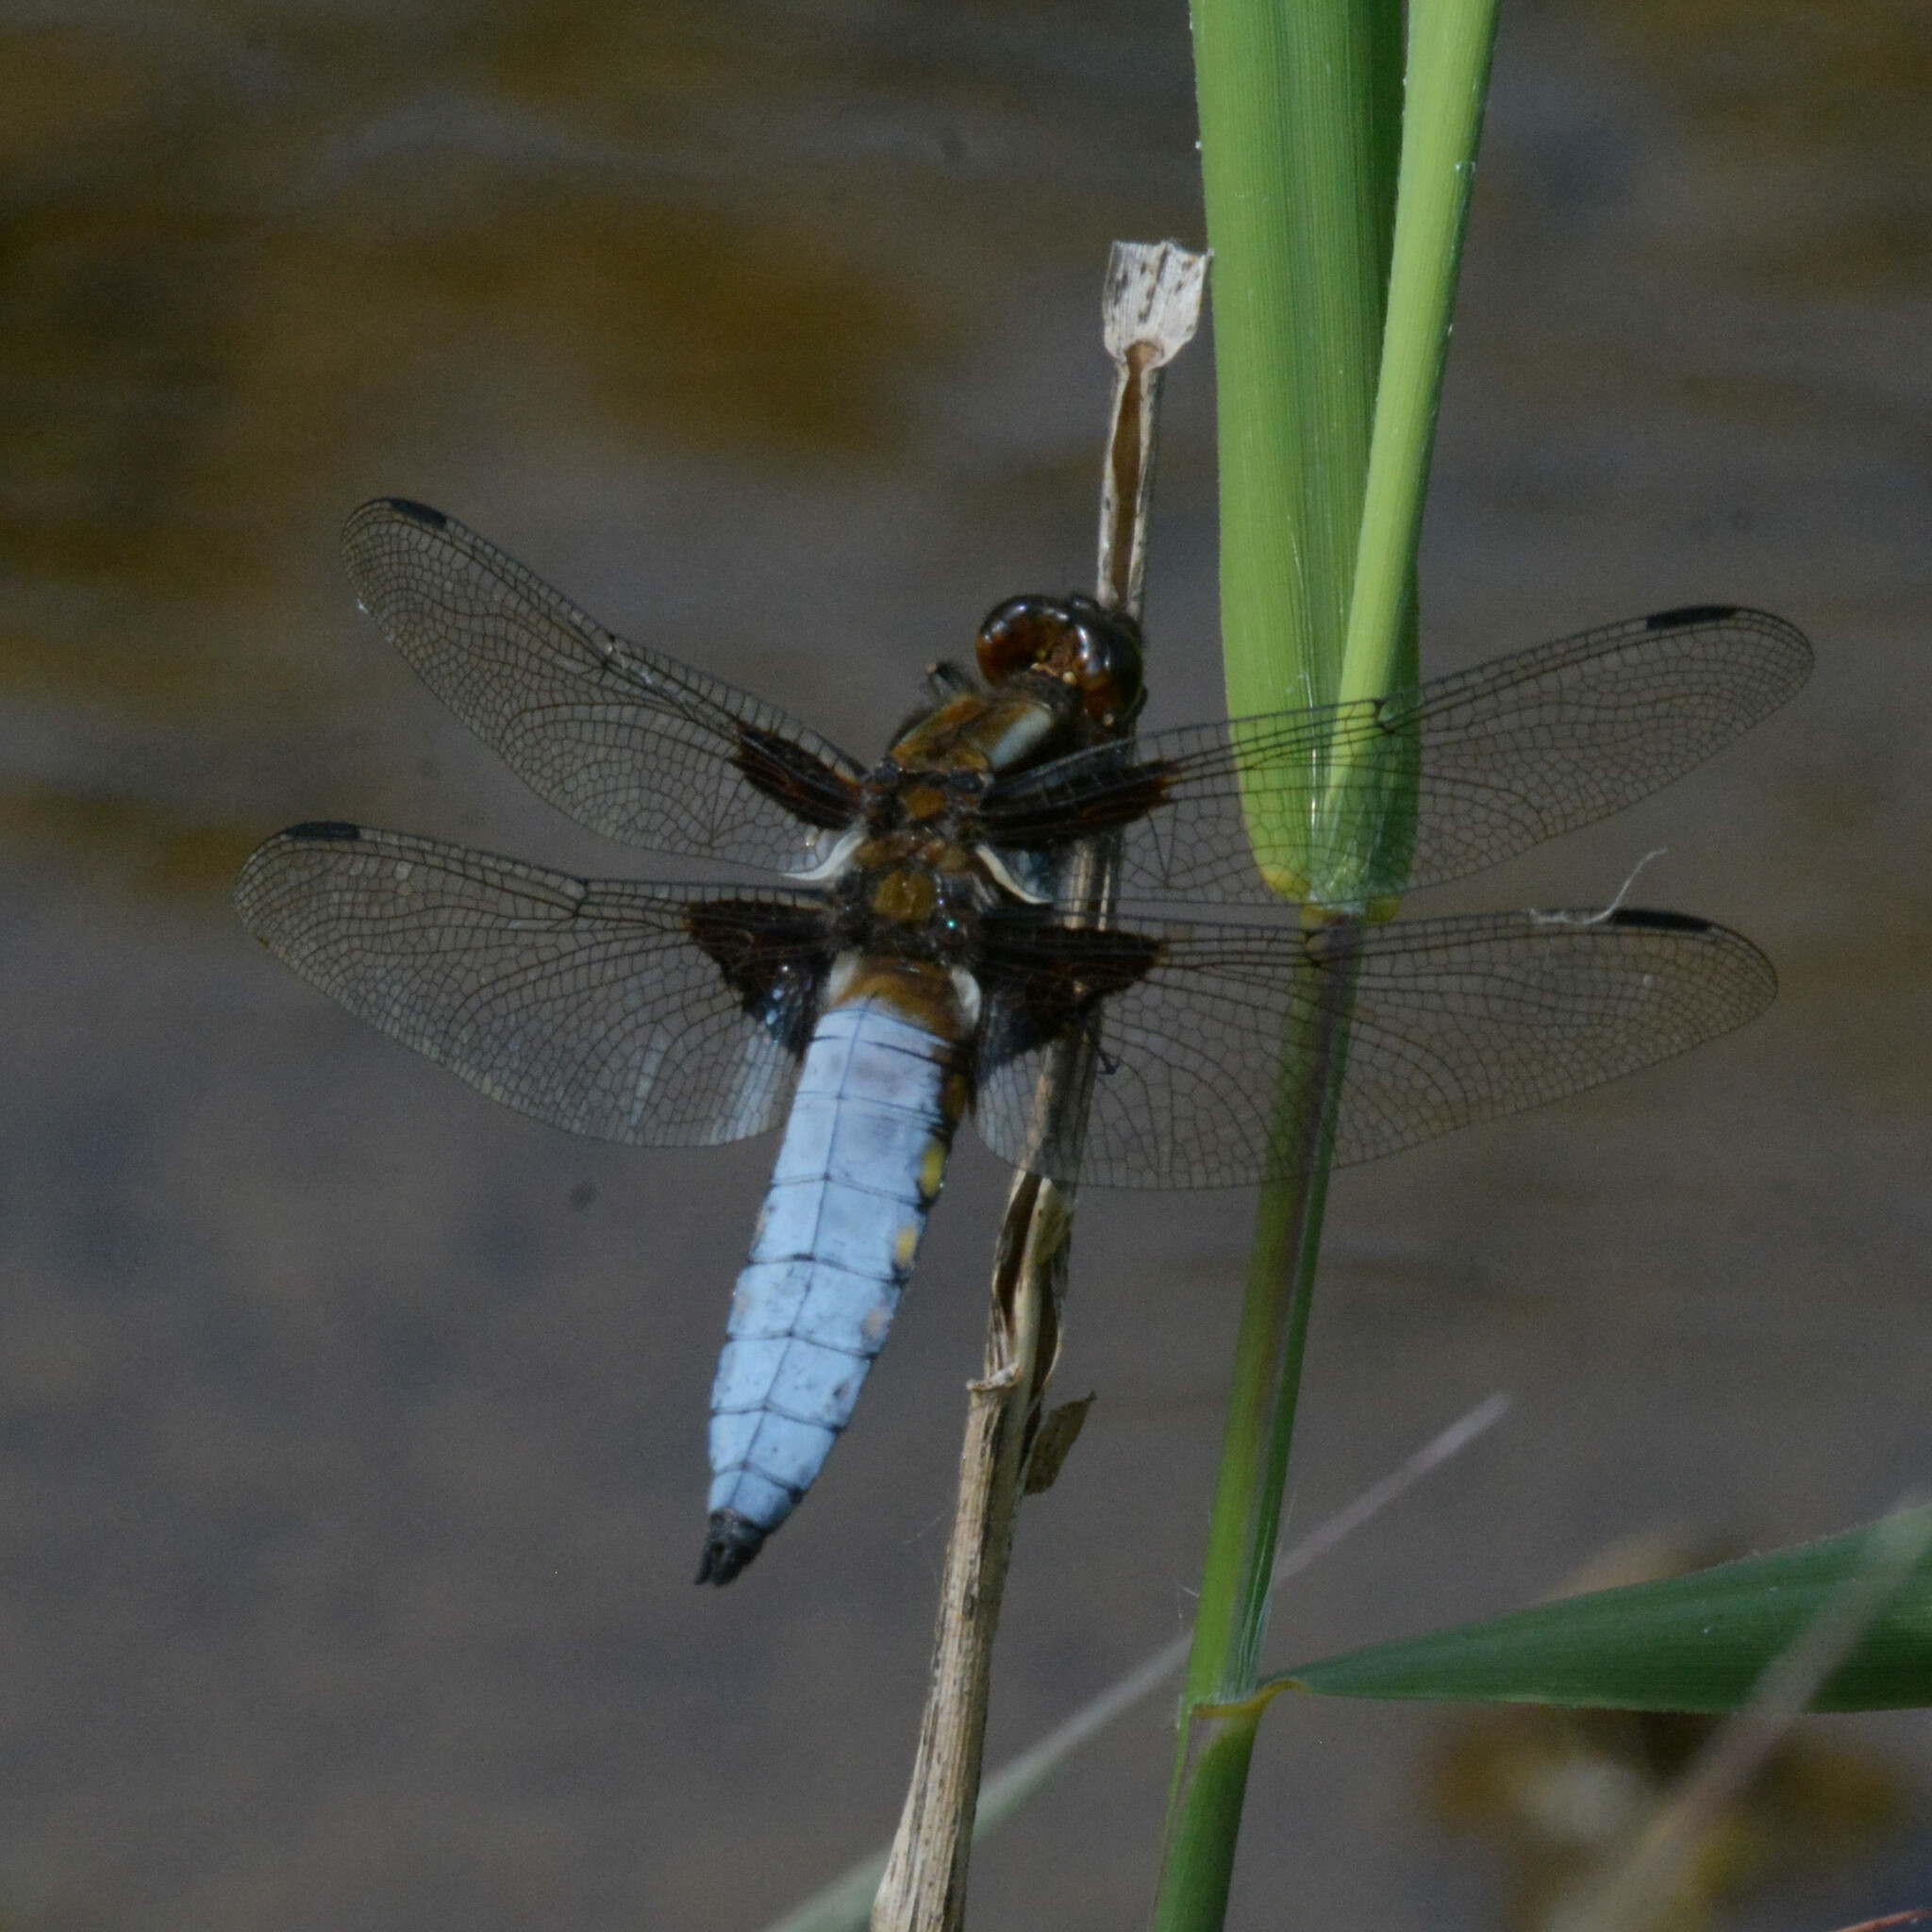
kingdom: Animalia
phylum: Arthropoda
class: Insecta
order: Odonata
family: Libellulidae
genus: Libellula
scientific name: Libellula depressa
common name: Broad-bodied chaser
